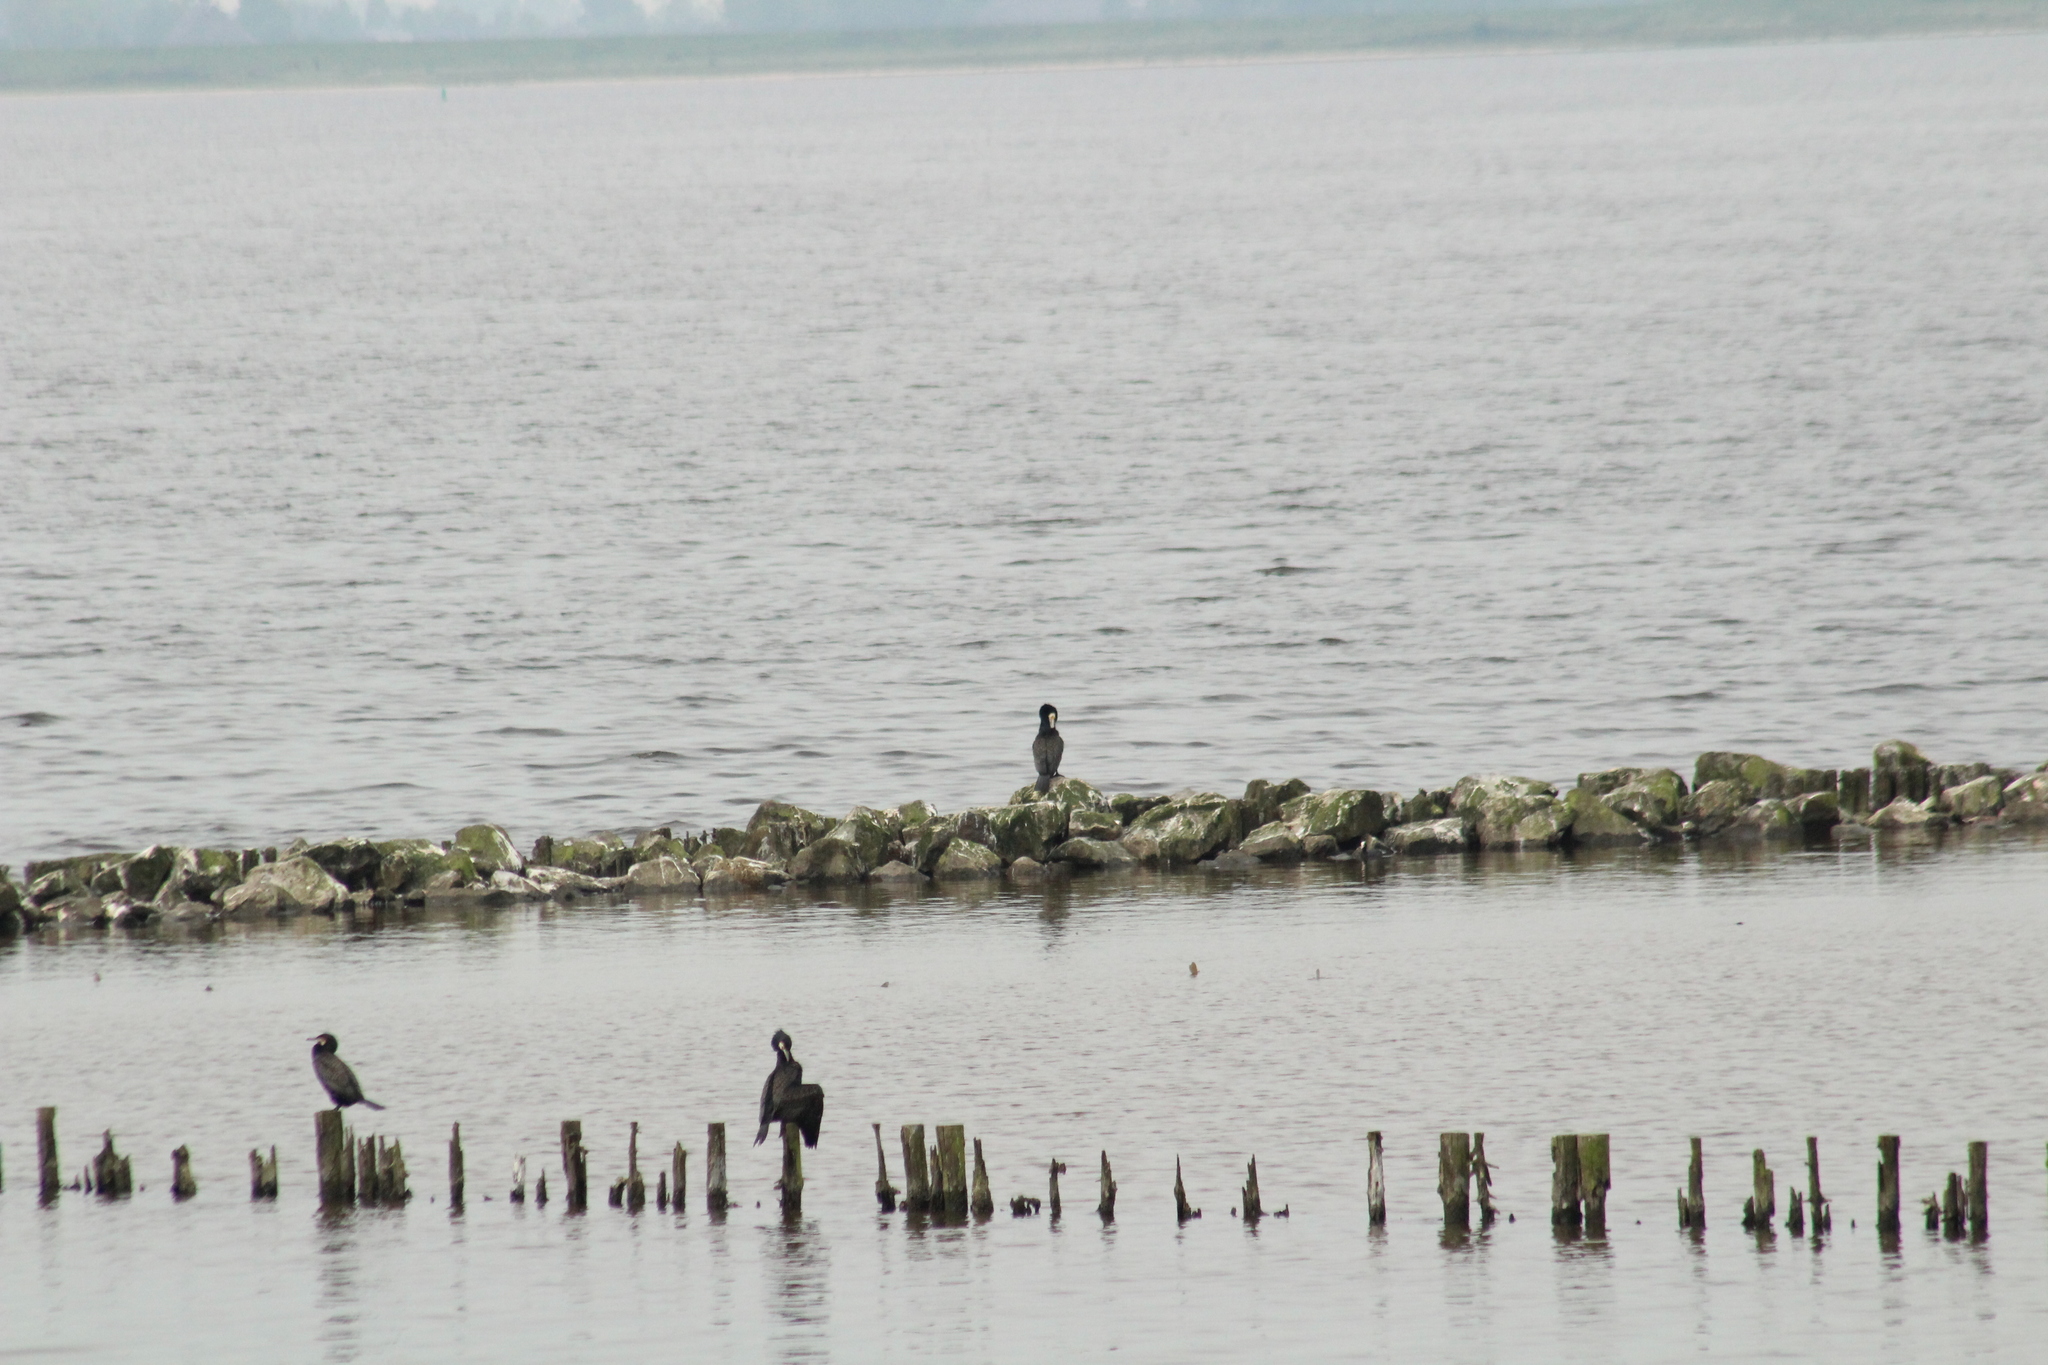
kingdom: Animalia
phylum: Chordata
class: Aves
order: Suliformes
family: Phalacrocoracidae
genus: Phalacrocorax
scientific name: Phalacrocorax carbo
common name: Great cormorant
